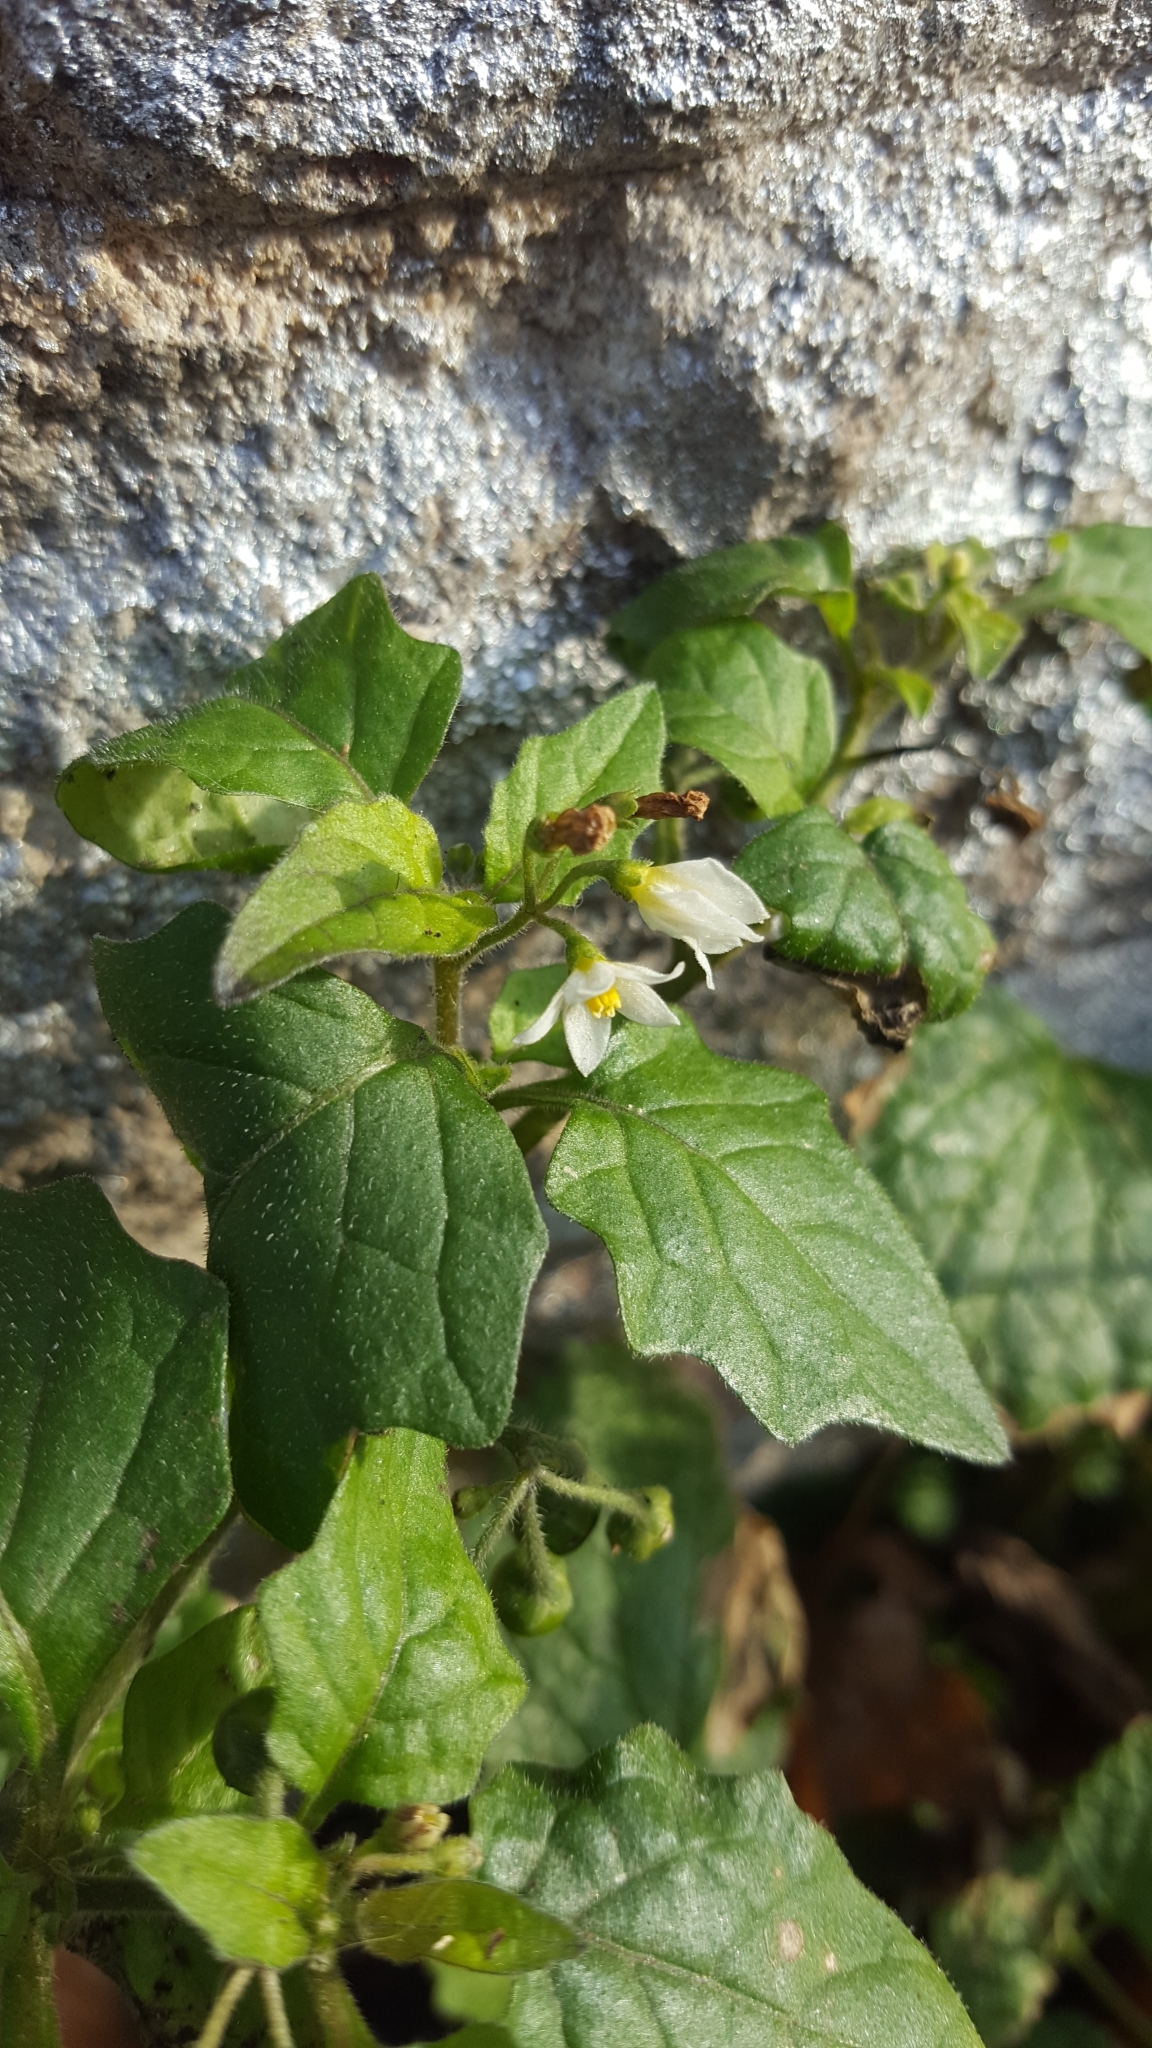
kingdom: Plantae
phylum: Tracheophyta
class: Magnoliopsida
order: Solanales
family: Solanaceae
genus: Solanum
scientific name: Solanum nigrum
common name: Black nightshade
